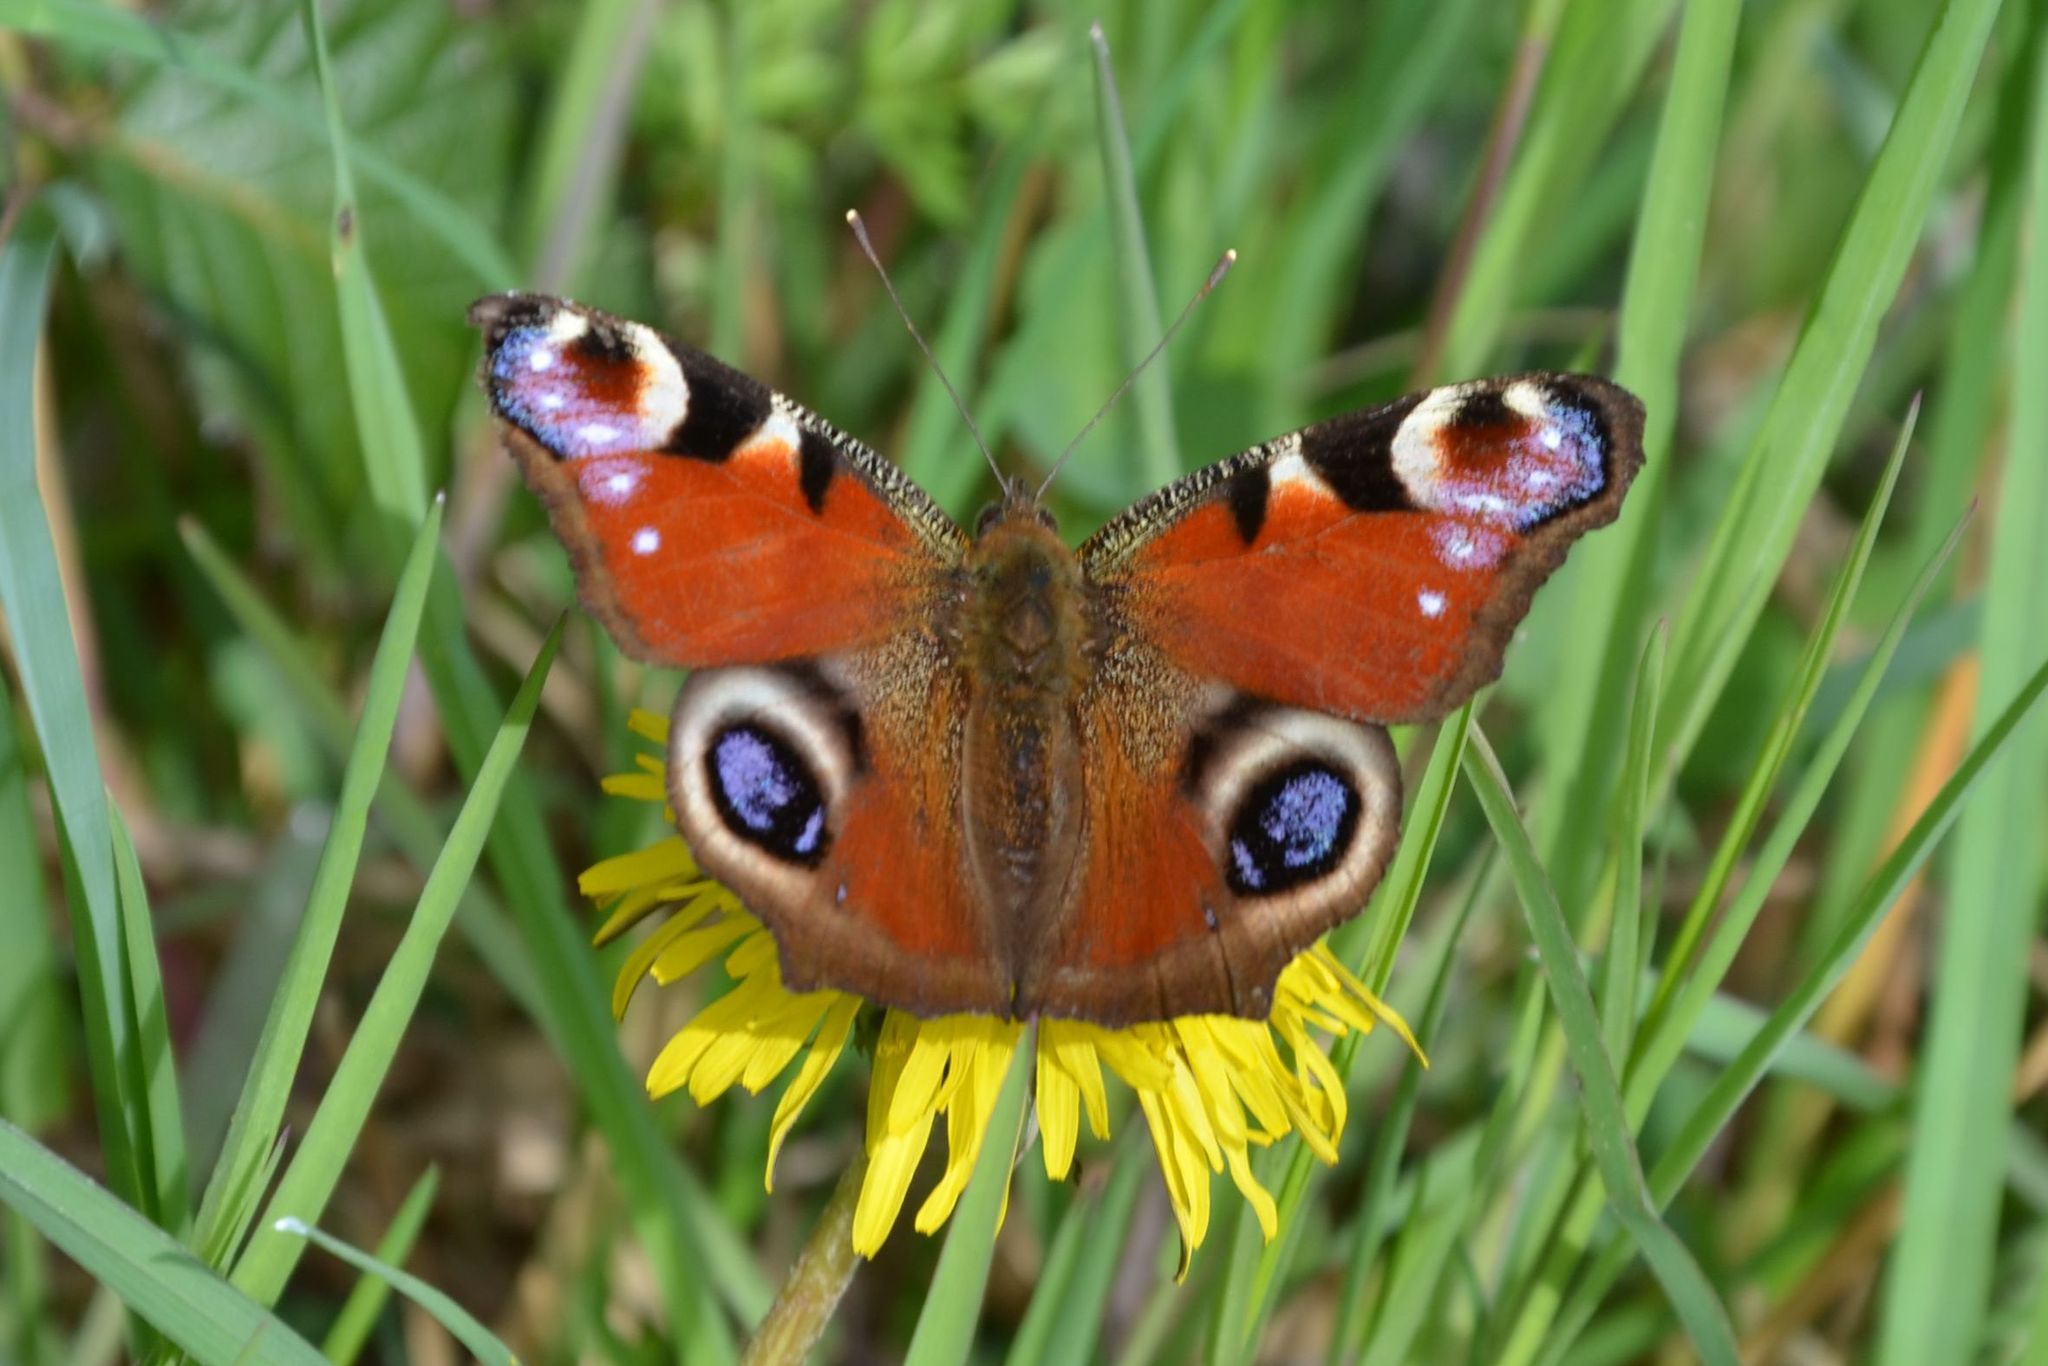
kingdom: Animalia
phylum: Arthropoda
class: Insecta
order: Lepidoptera
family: Nymphalidae
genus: Aglais
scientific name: Aglais io
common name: Peacock
